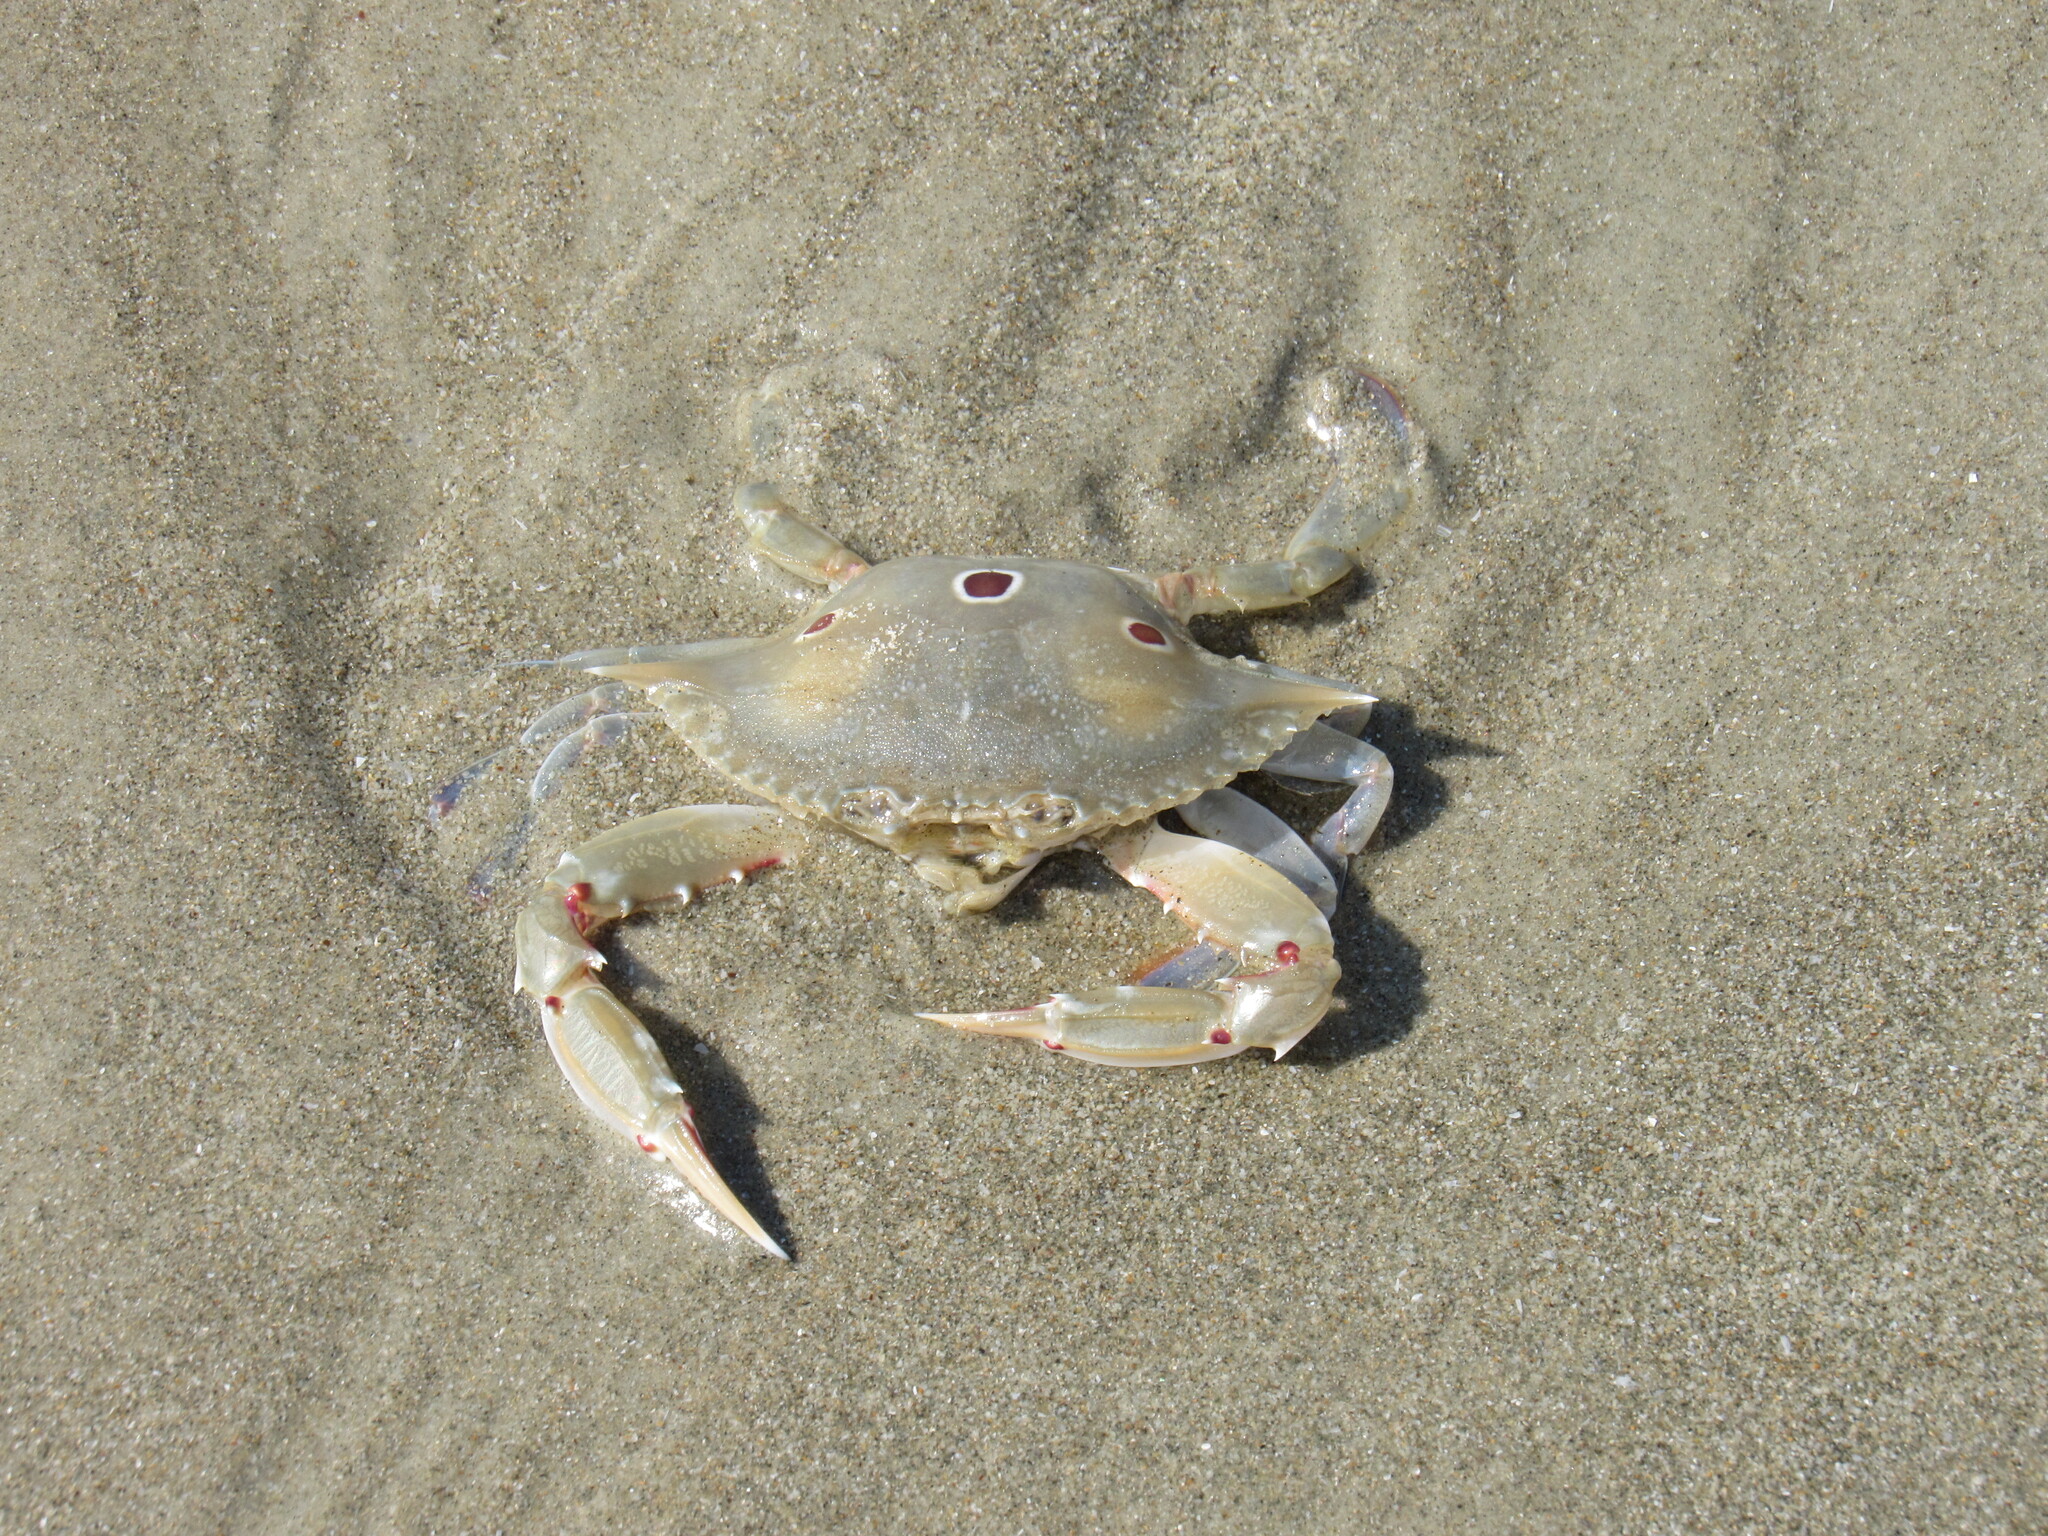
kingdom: Animalia
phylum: Arthropoda
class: Malacostraca
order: Decapoda
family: Portunidae
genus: Portunus
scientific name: Portunus sanguinolentus
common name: Blood-spotted swimming crab
